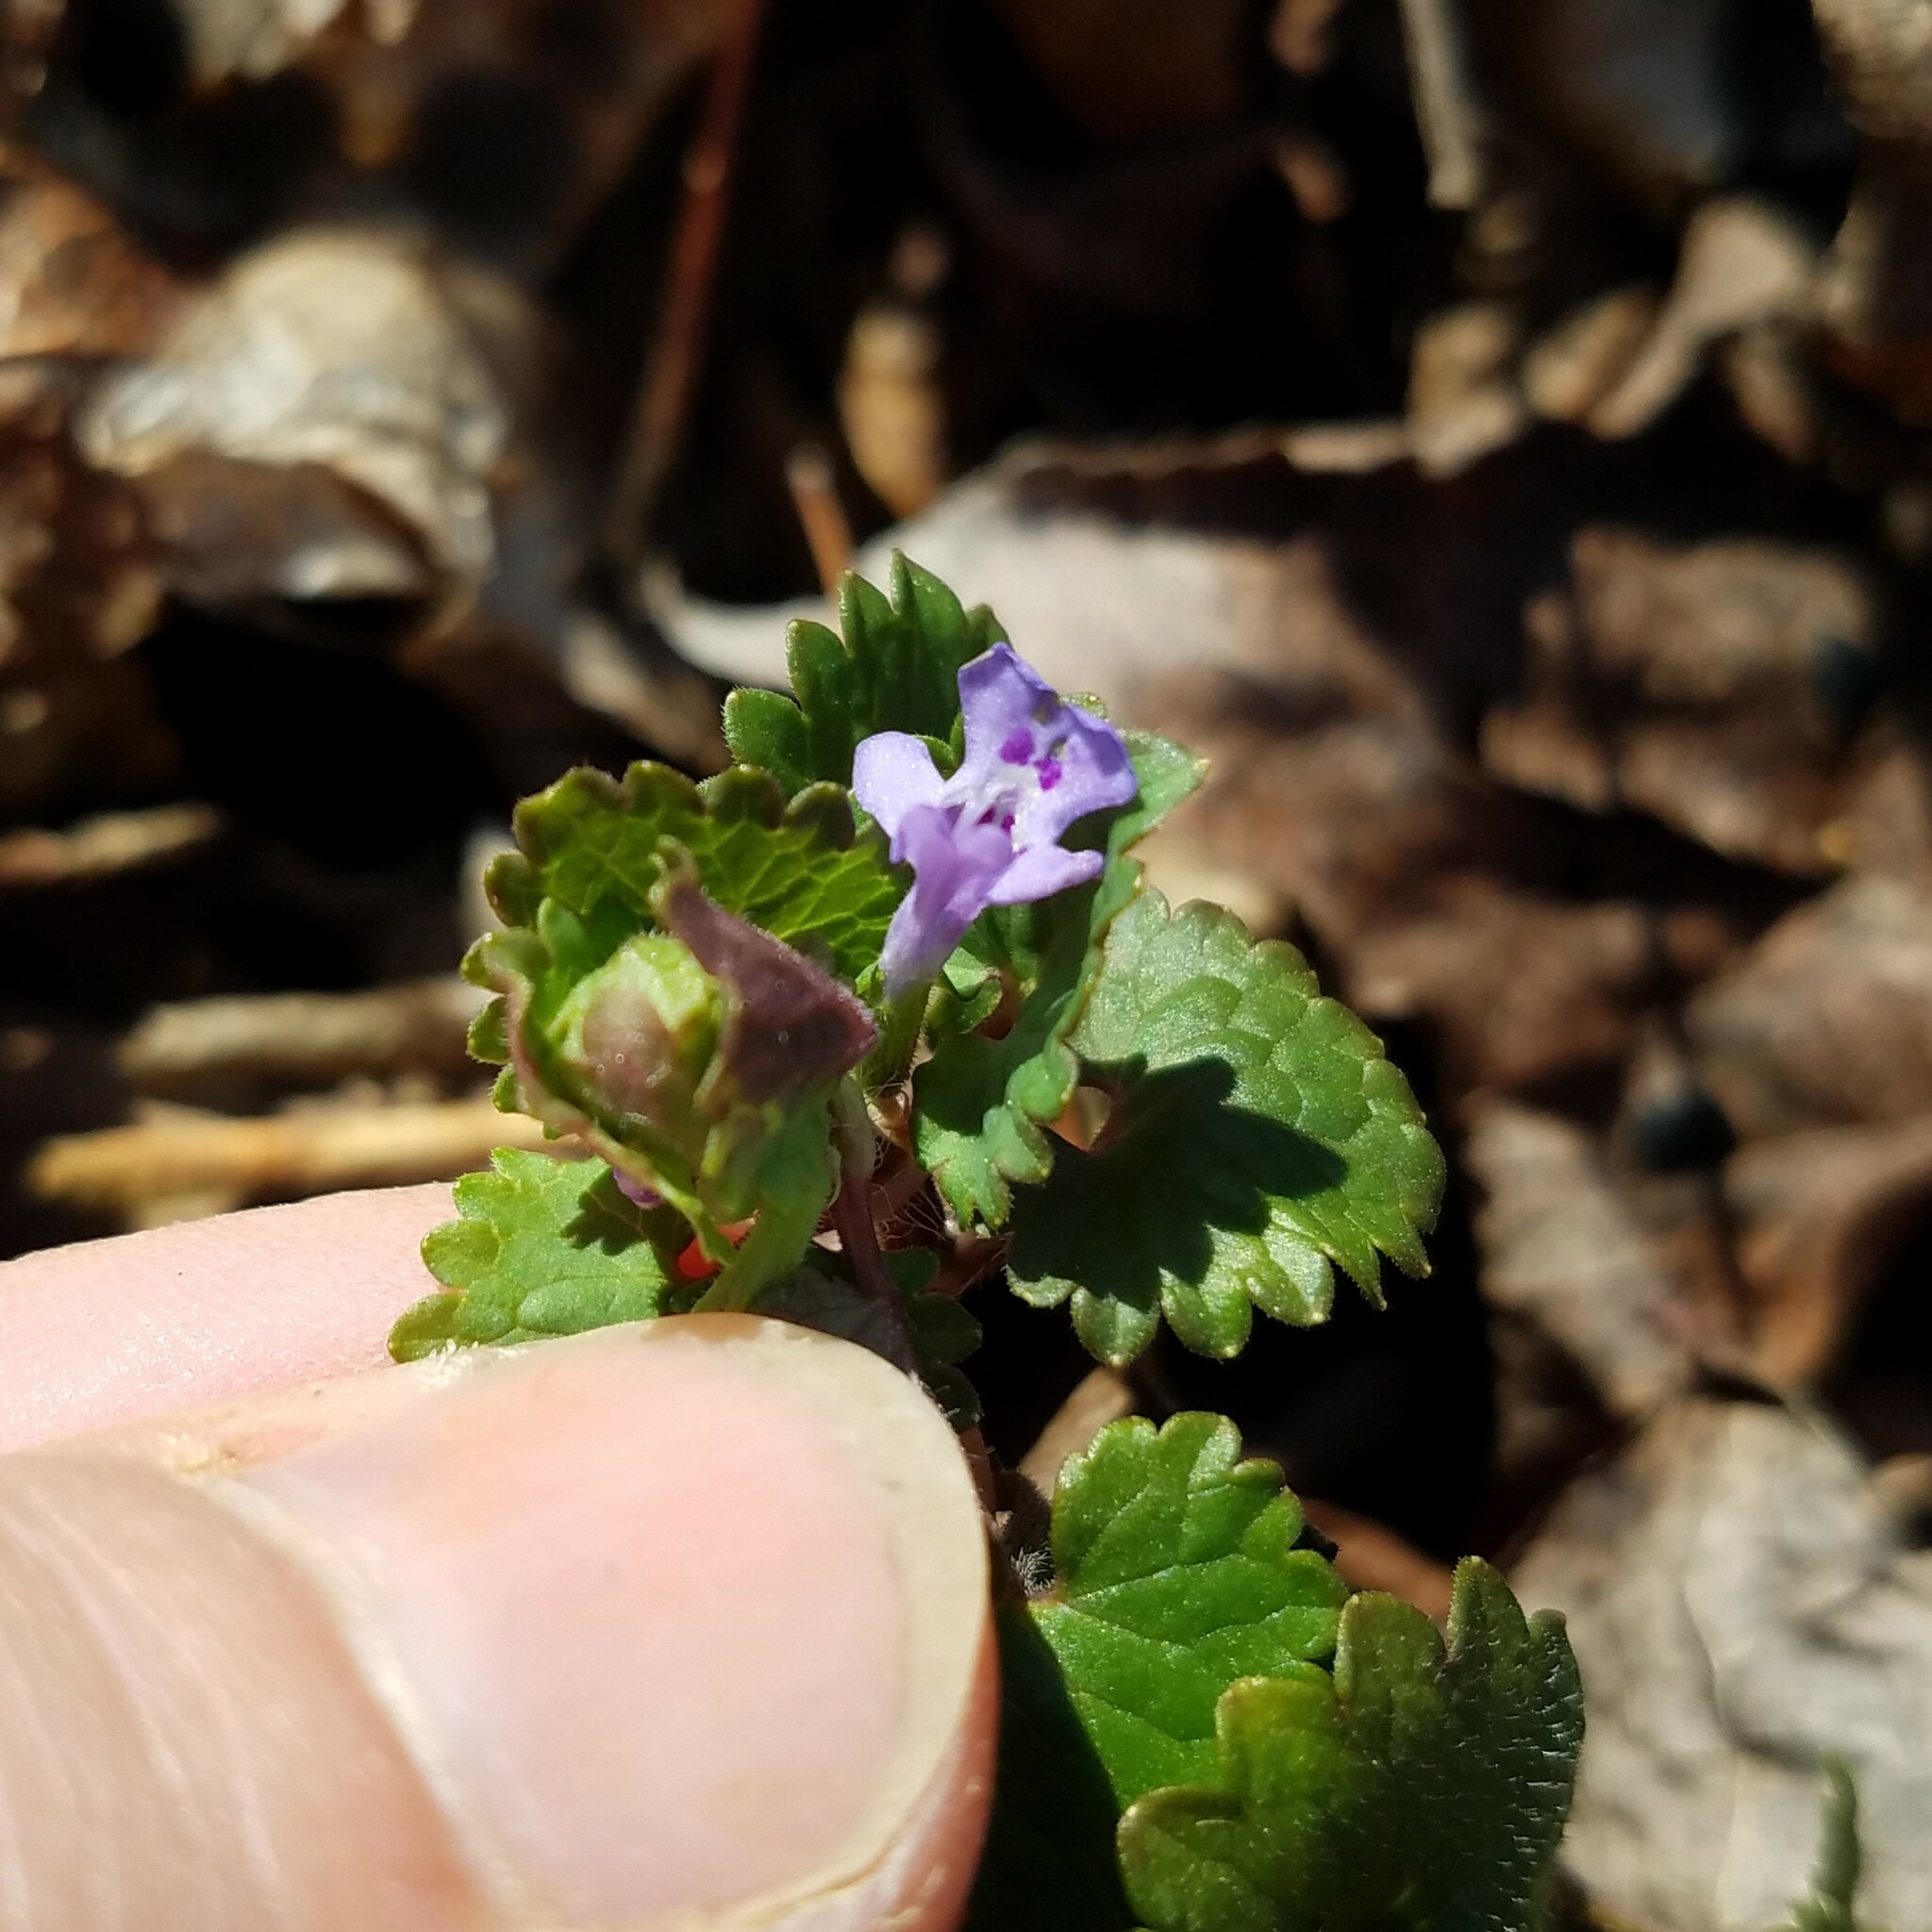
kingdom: Plantae
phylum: Tracheophyta
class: Magnoliopsida
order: Lamiales
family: Lamiaceae
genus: Glechoma
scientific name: Glechoma hederacea
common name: Ground ivy
